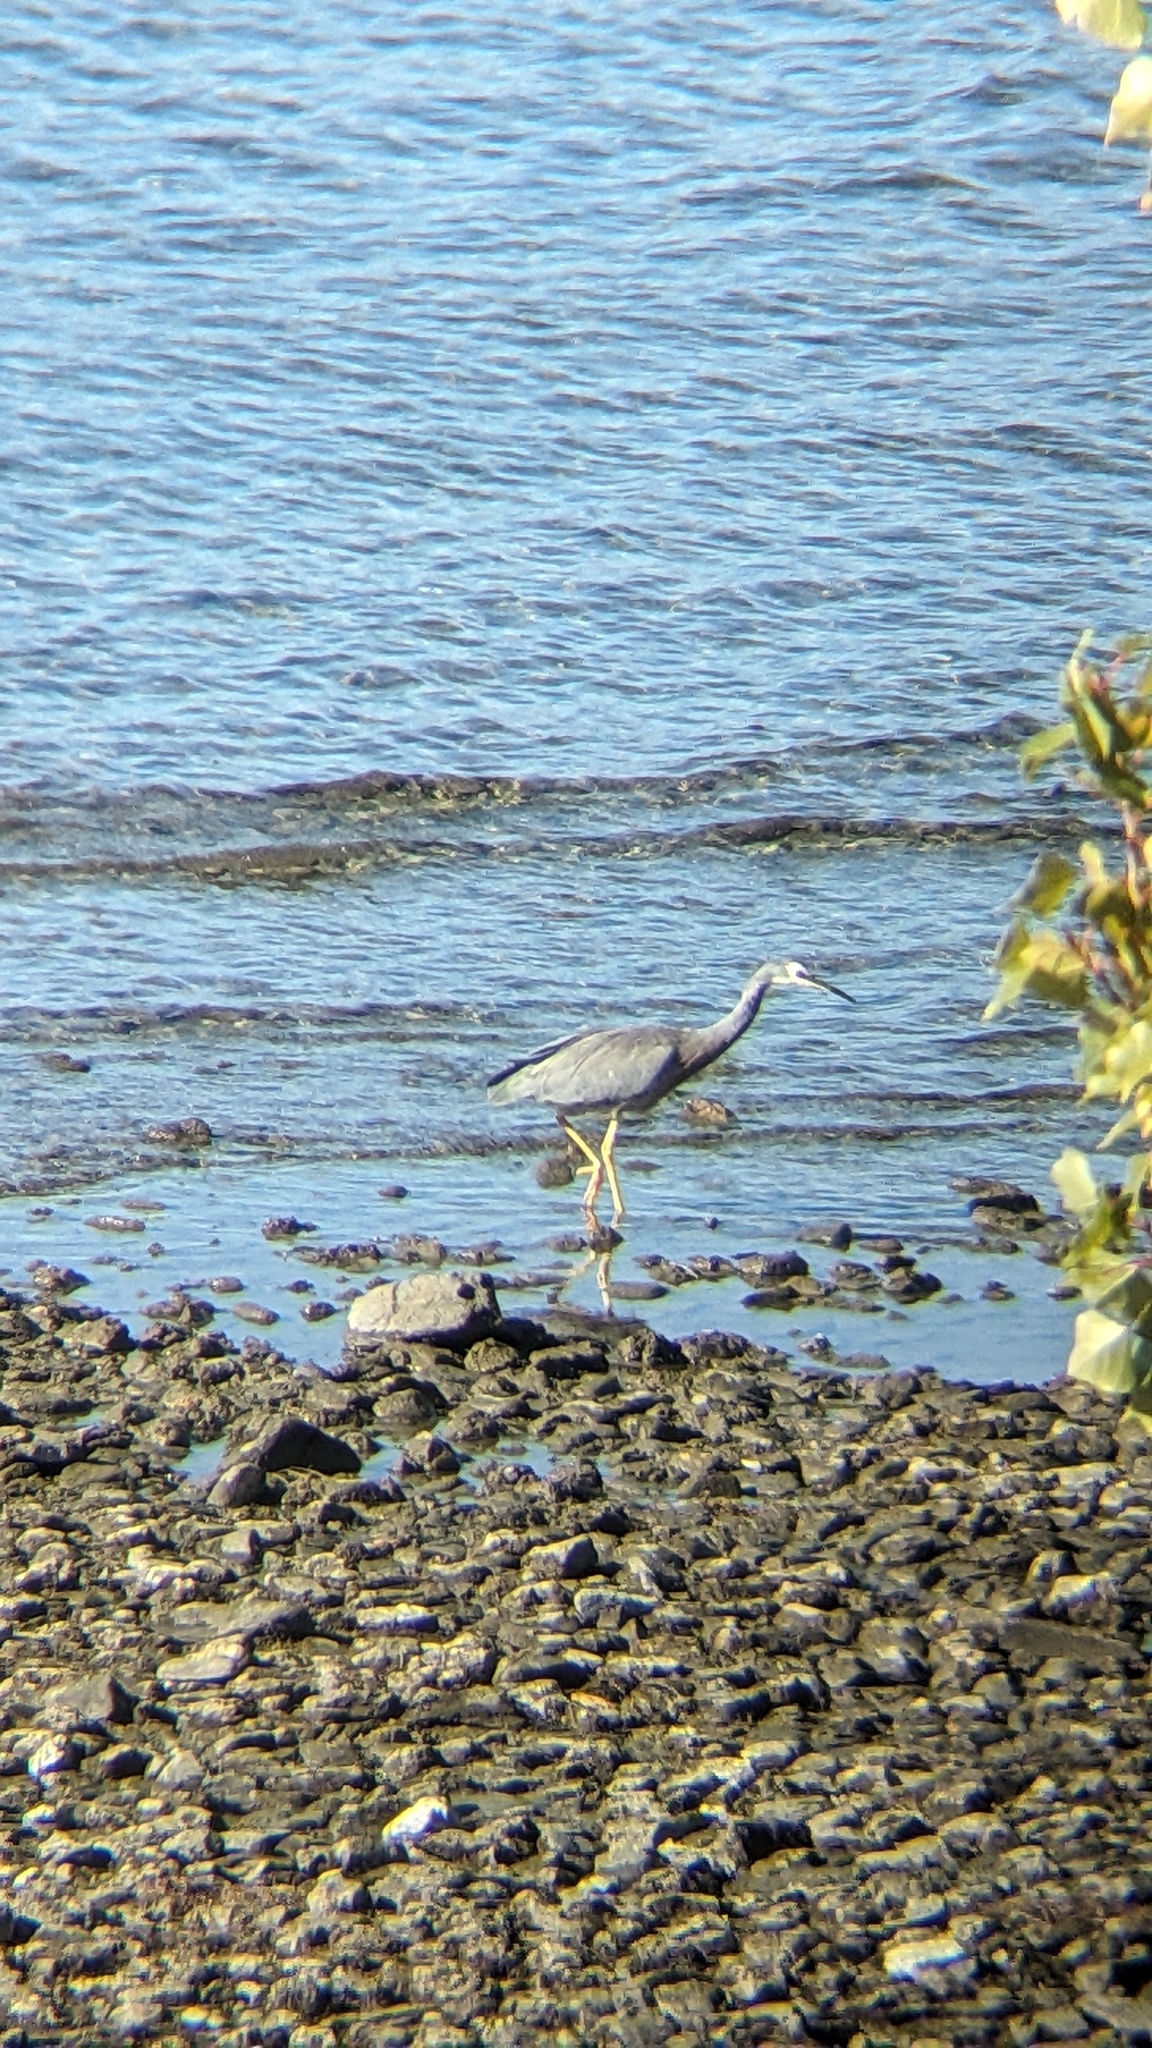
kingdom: Animalia
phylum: Chordata
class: Aves
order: Pelecaniformes
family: Ardeidae
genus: Egretta
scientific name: Egretta novaehollandiae
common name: White-faced heron
